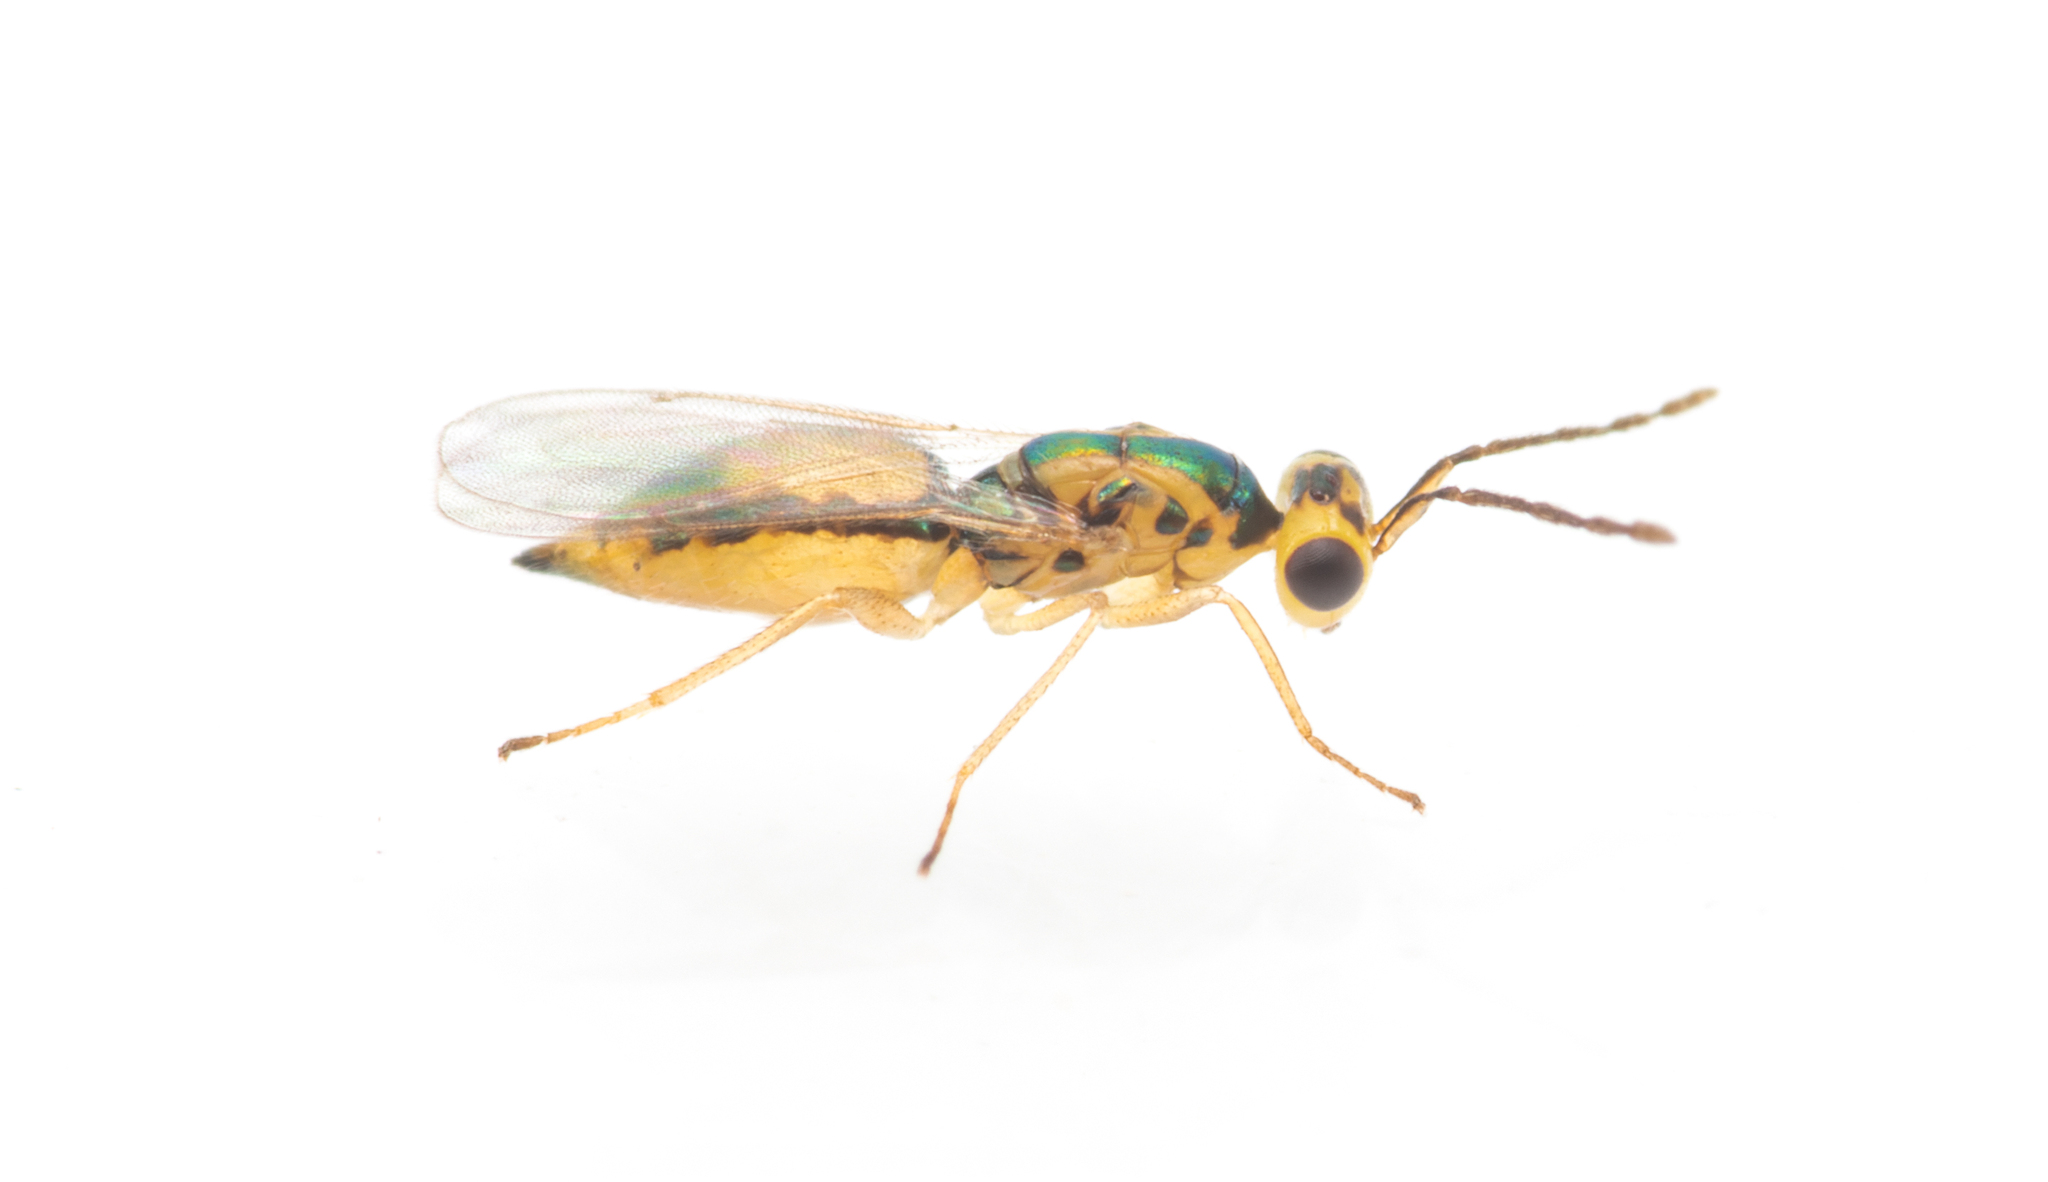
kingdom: Animalia
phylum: Arthropoda
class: Insecta
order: Hymenoptera
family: Eulophidae
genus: Cirrospilus
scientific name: Cirrospilus viticola
